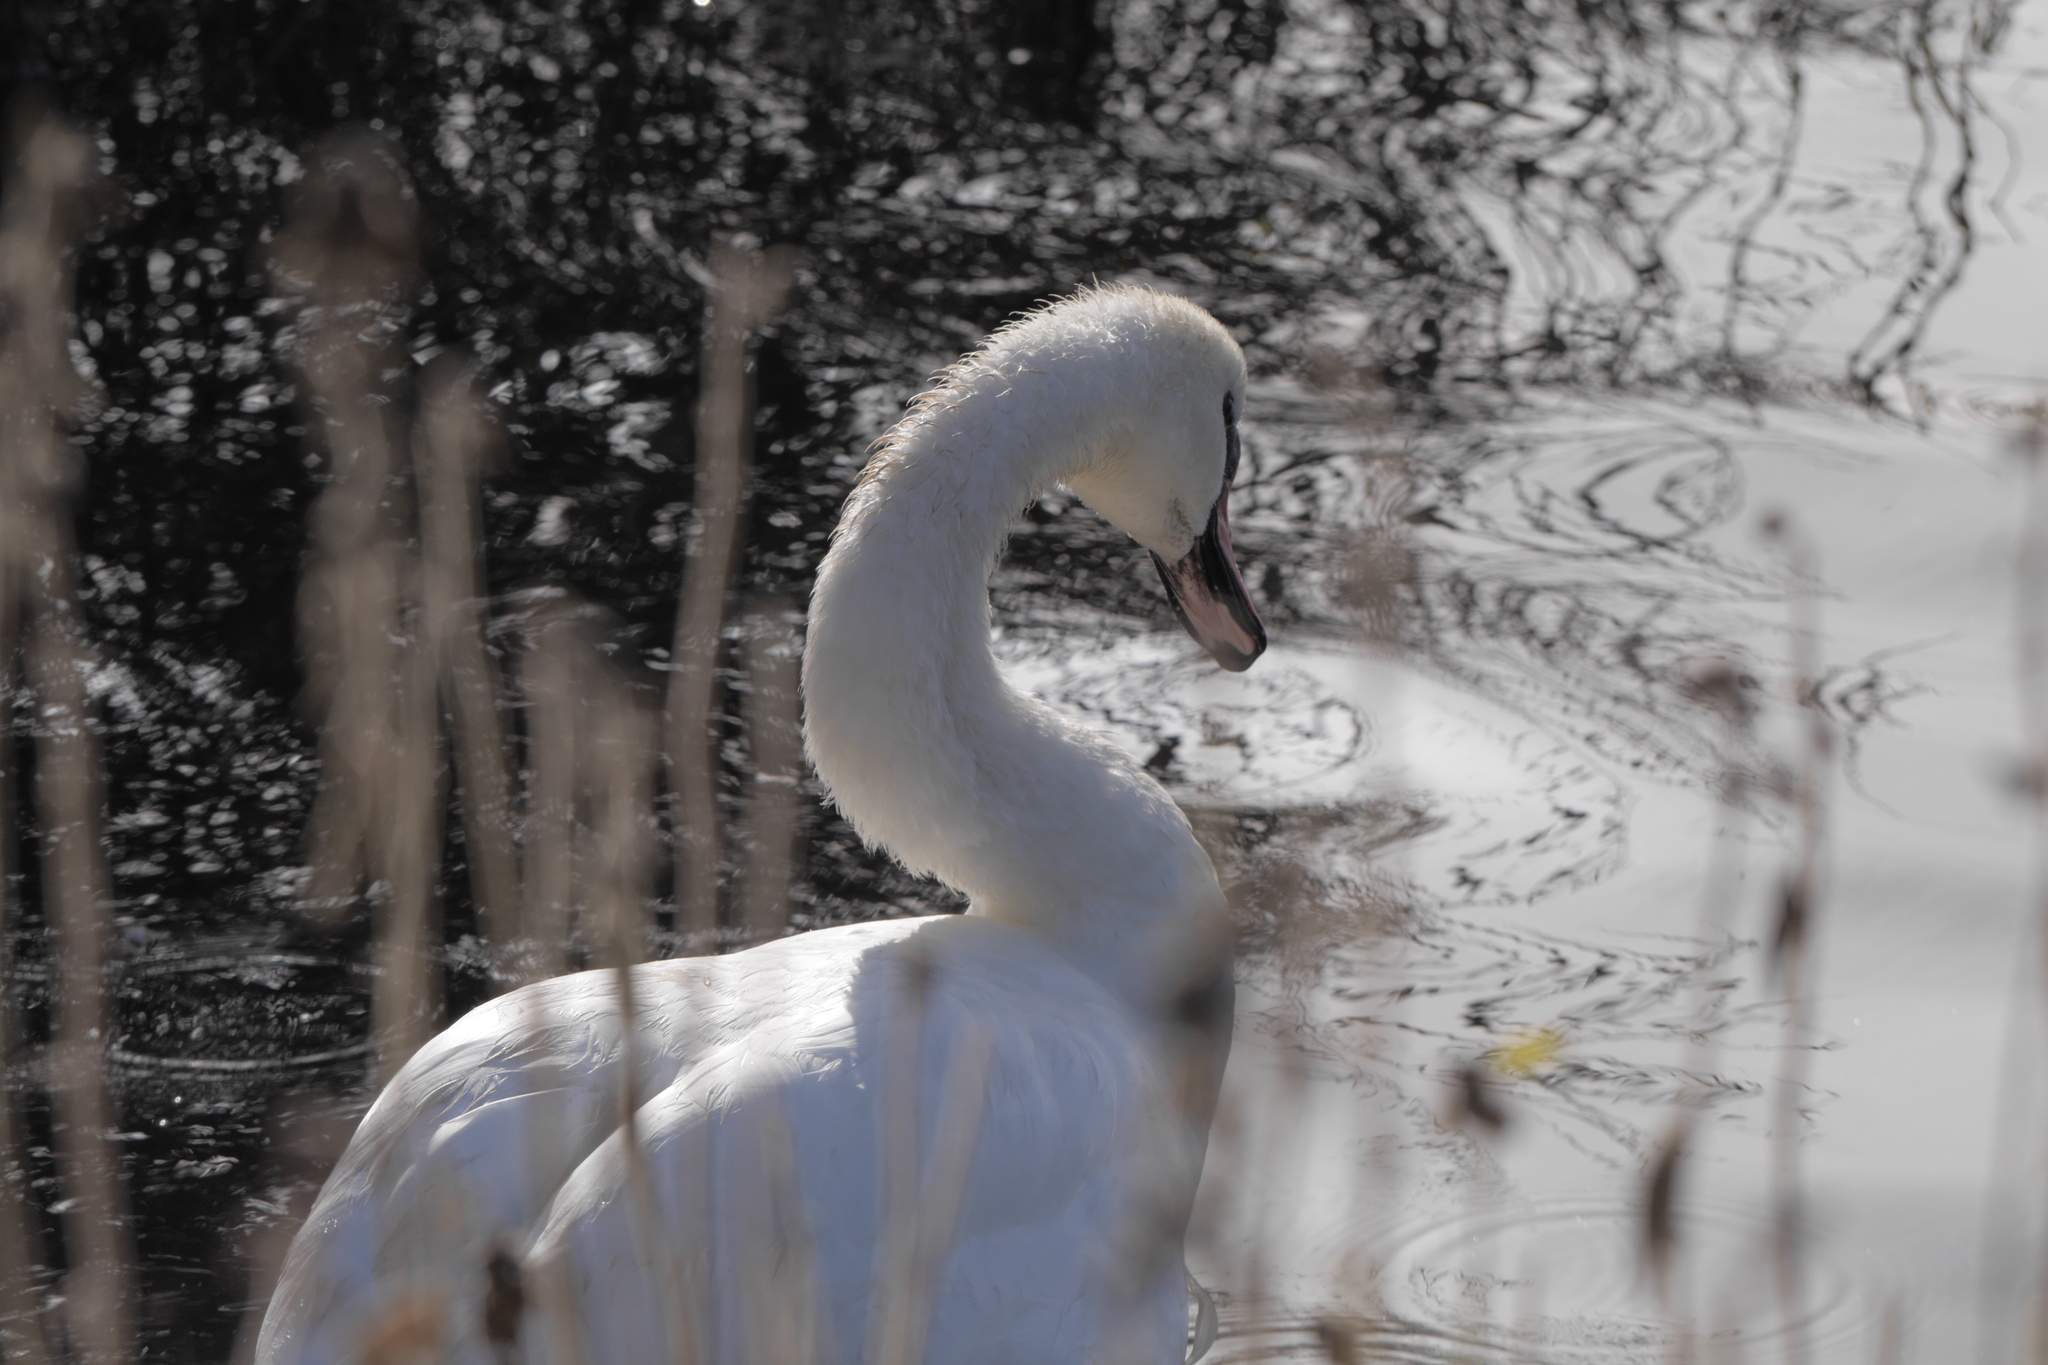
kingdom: Animalia
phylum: Chordata
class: Aves
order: Anseriformes
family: Anatidae
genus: Cygnus
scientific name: Cygnus olor
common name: Mute swan
